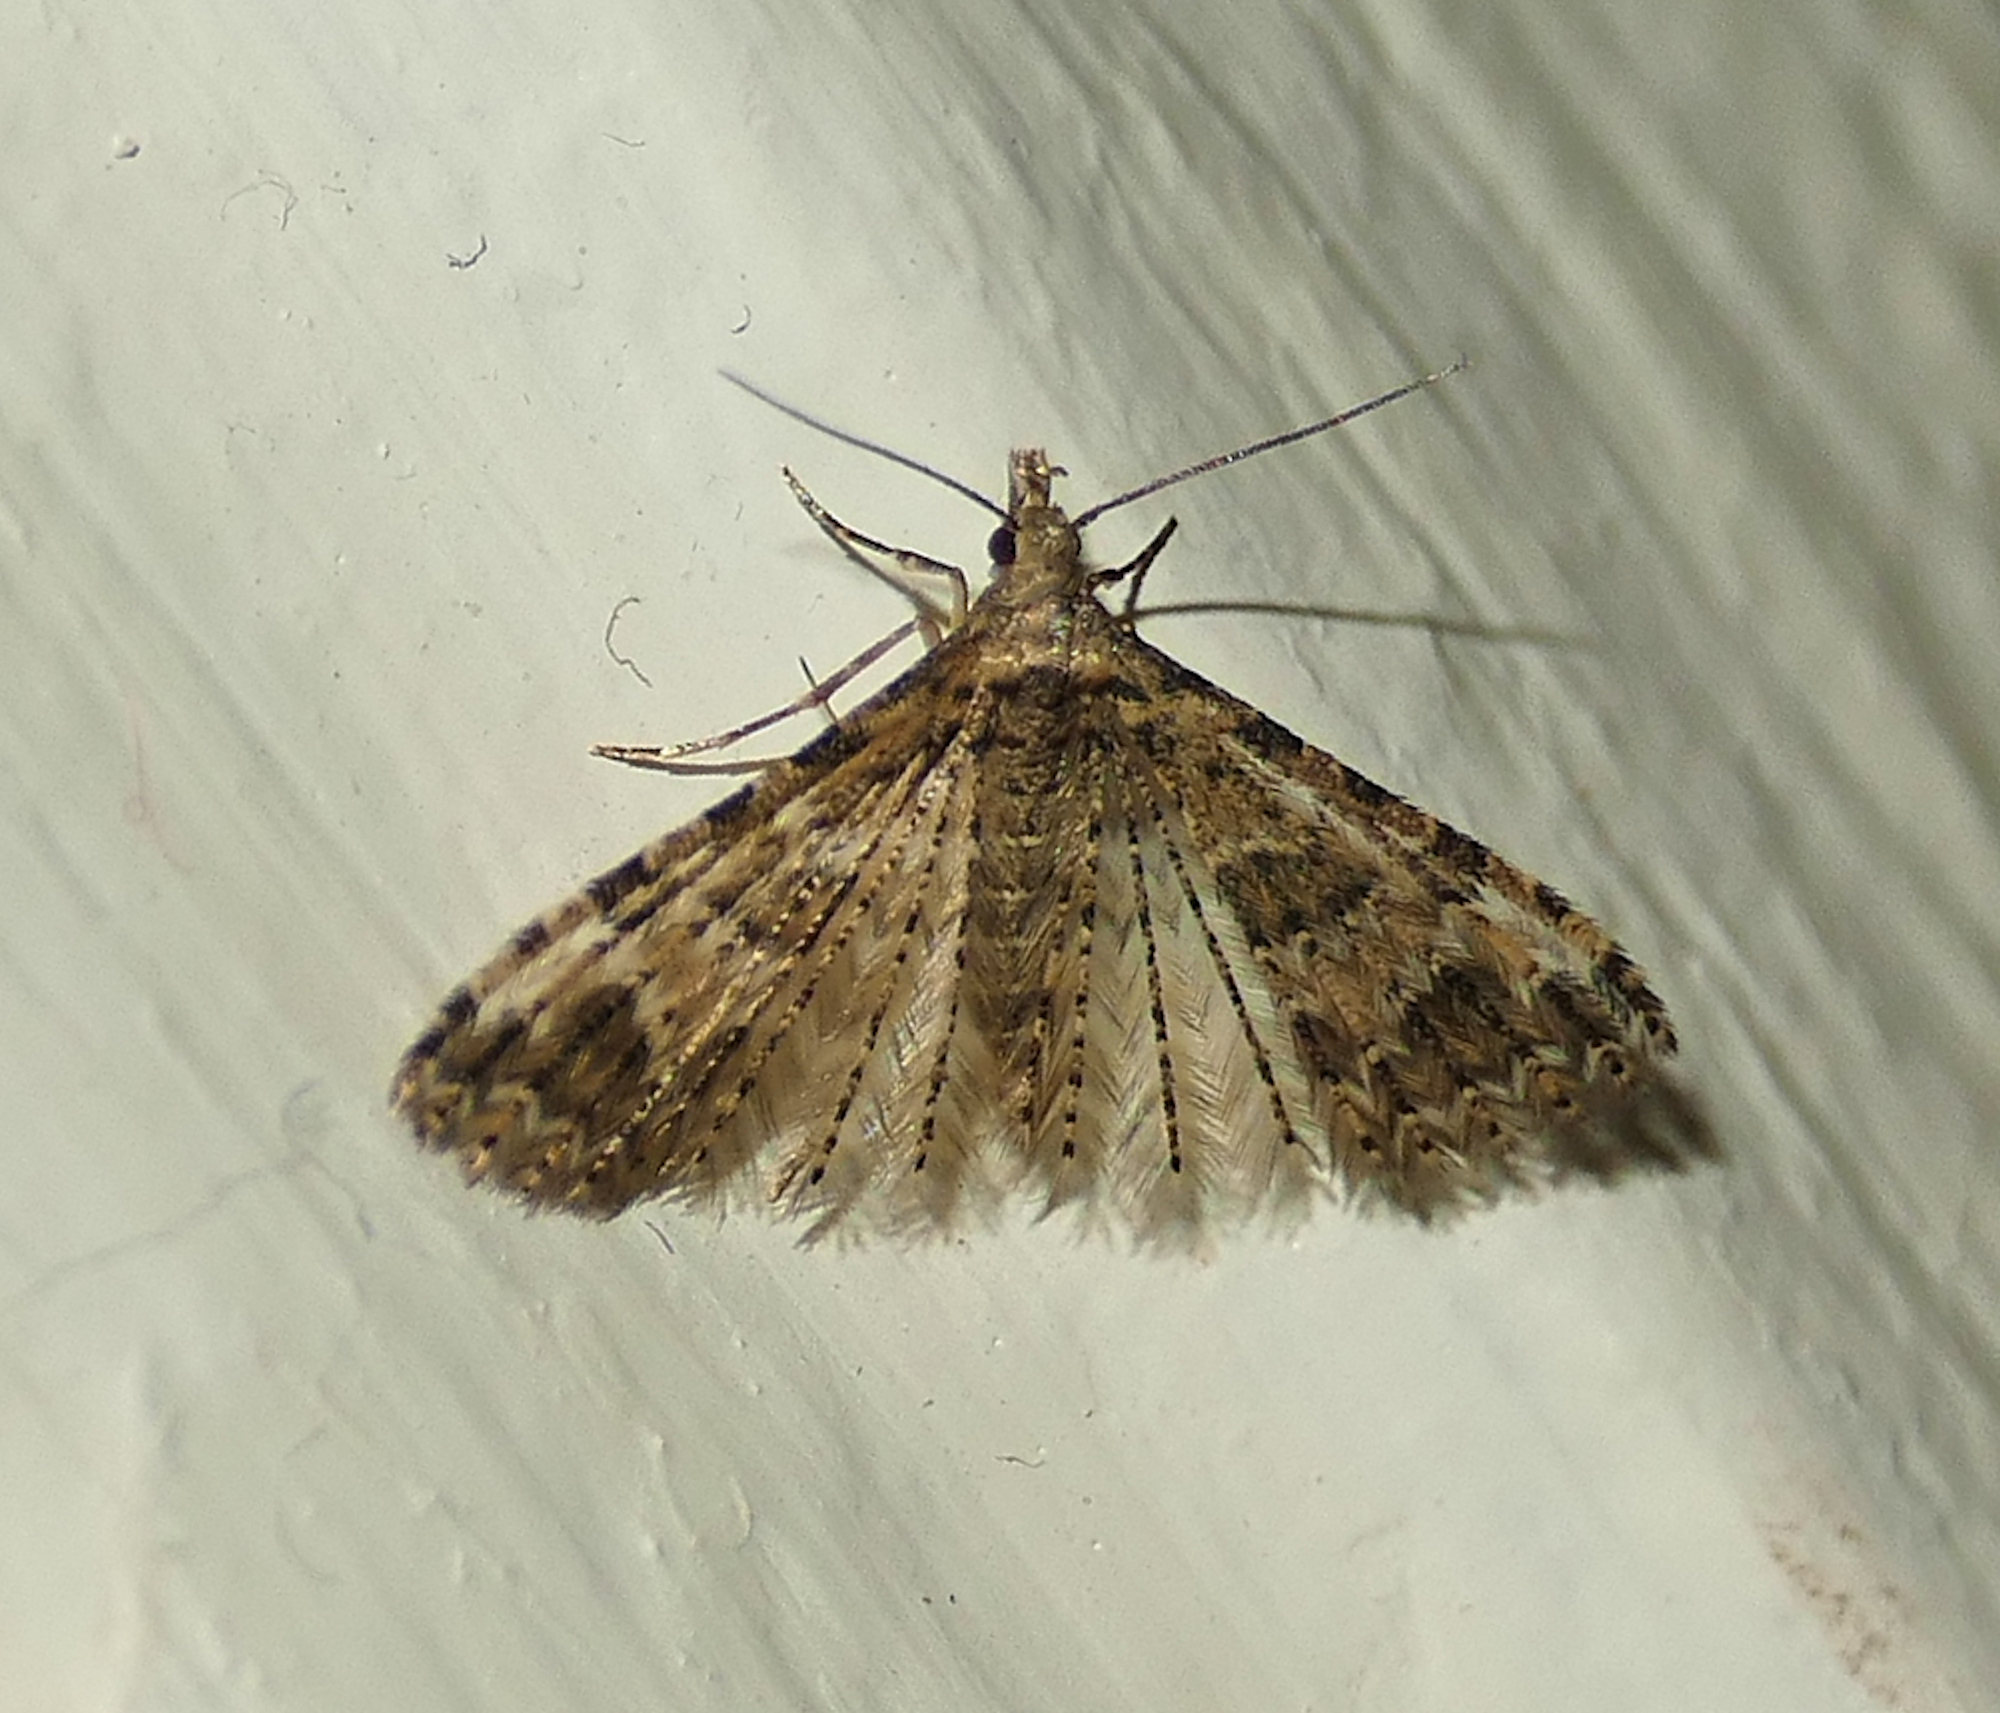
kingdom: Animalia
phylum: Arthropoda
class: Insecta
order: Lepidoptera
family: Alucitidae
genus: Alucita
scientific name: Alucita montana
